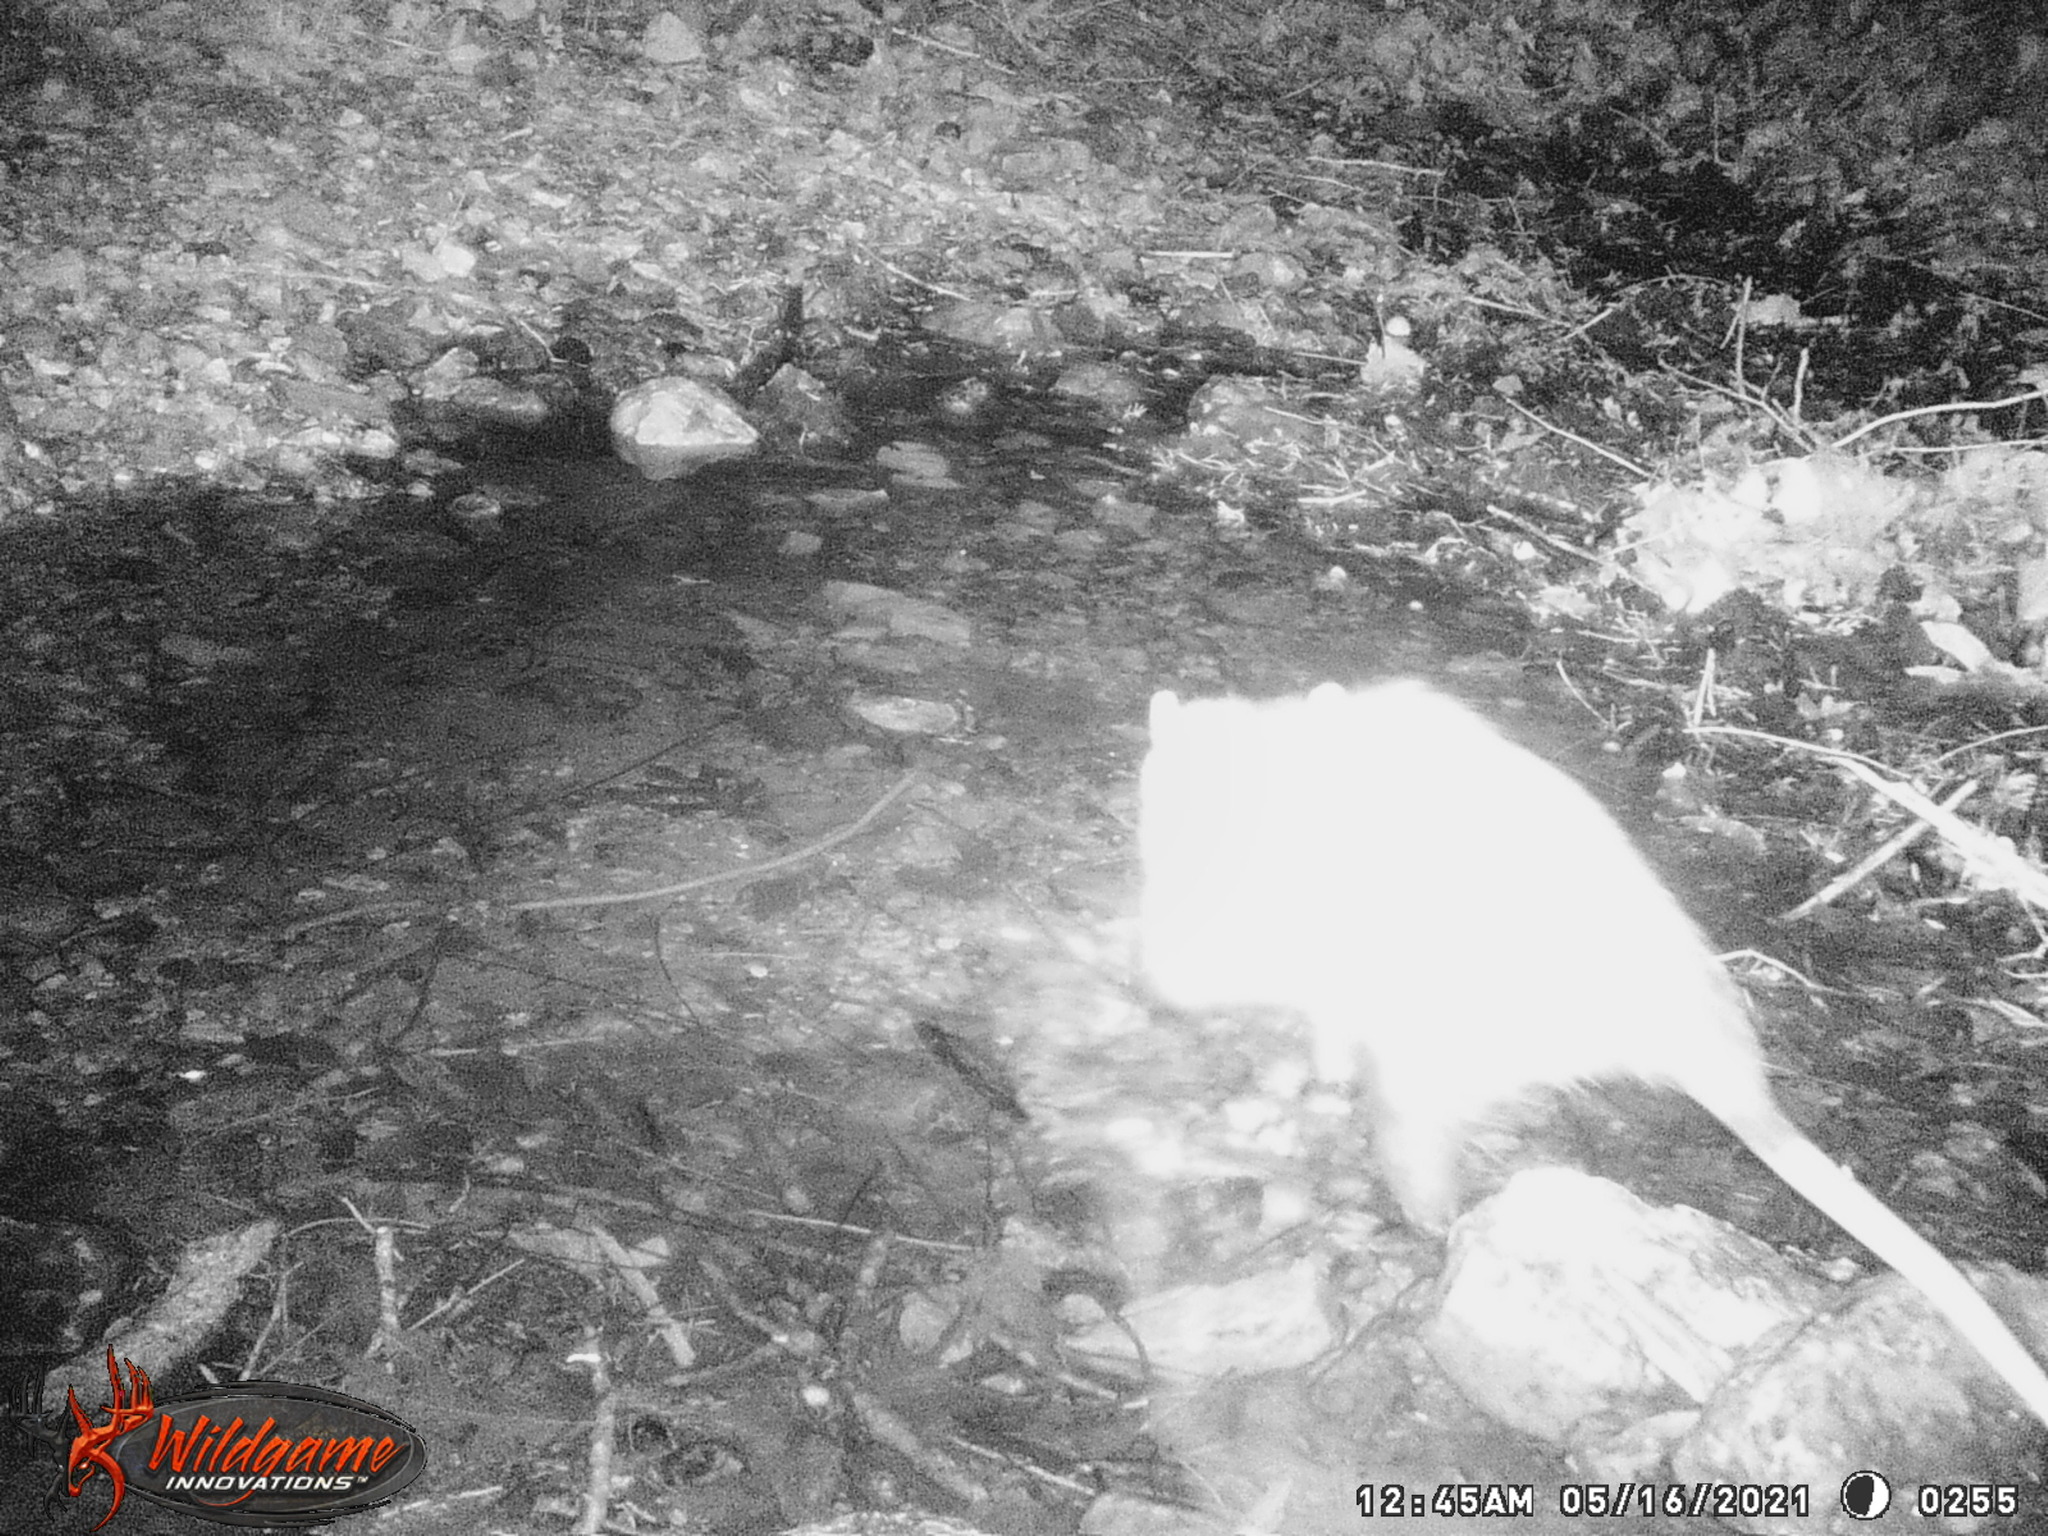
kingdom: Animalia
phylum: Chordata
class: Mammalia
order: Didelphimorphia
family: Didelphidae
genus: Didelphis
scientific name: Didelphis virginiana
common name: Virginia opossum
